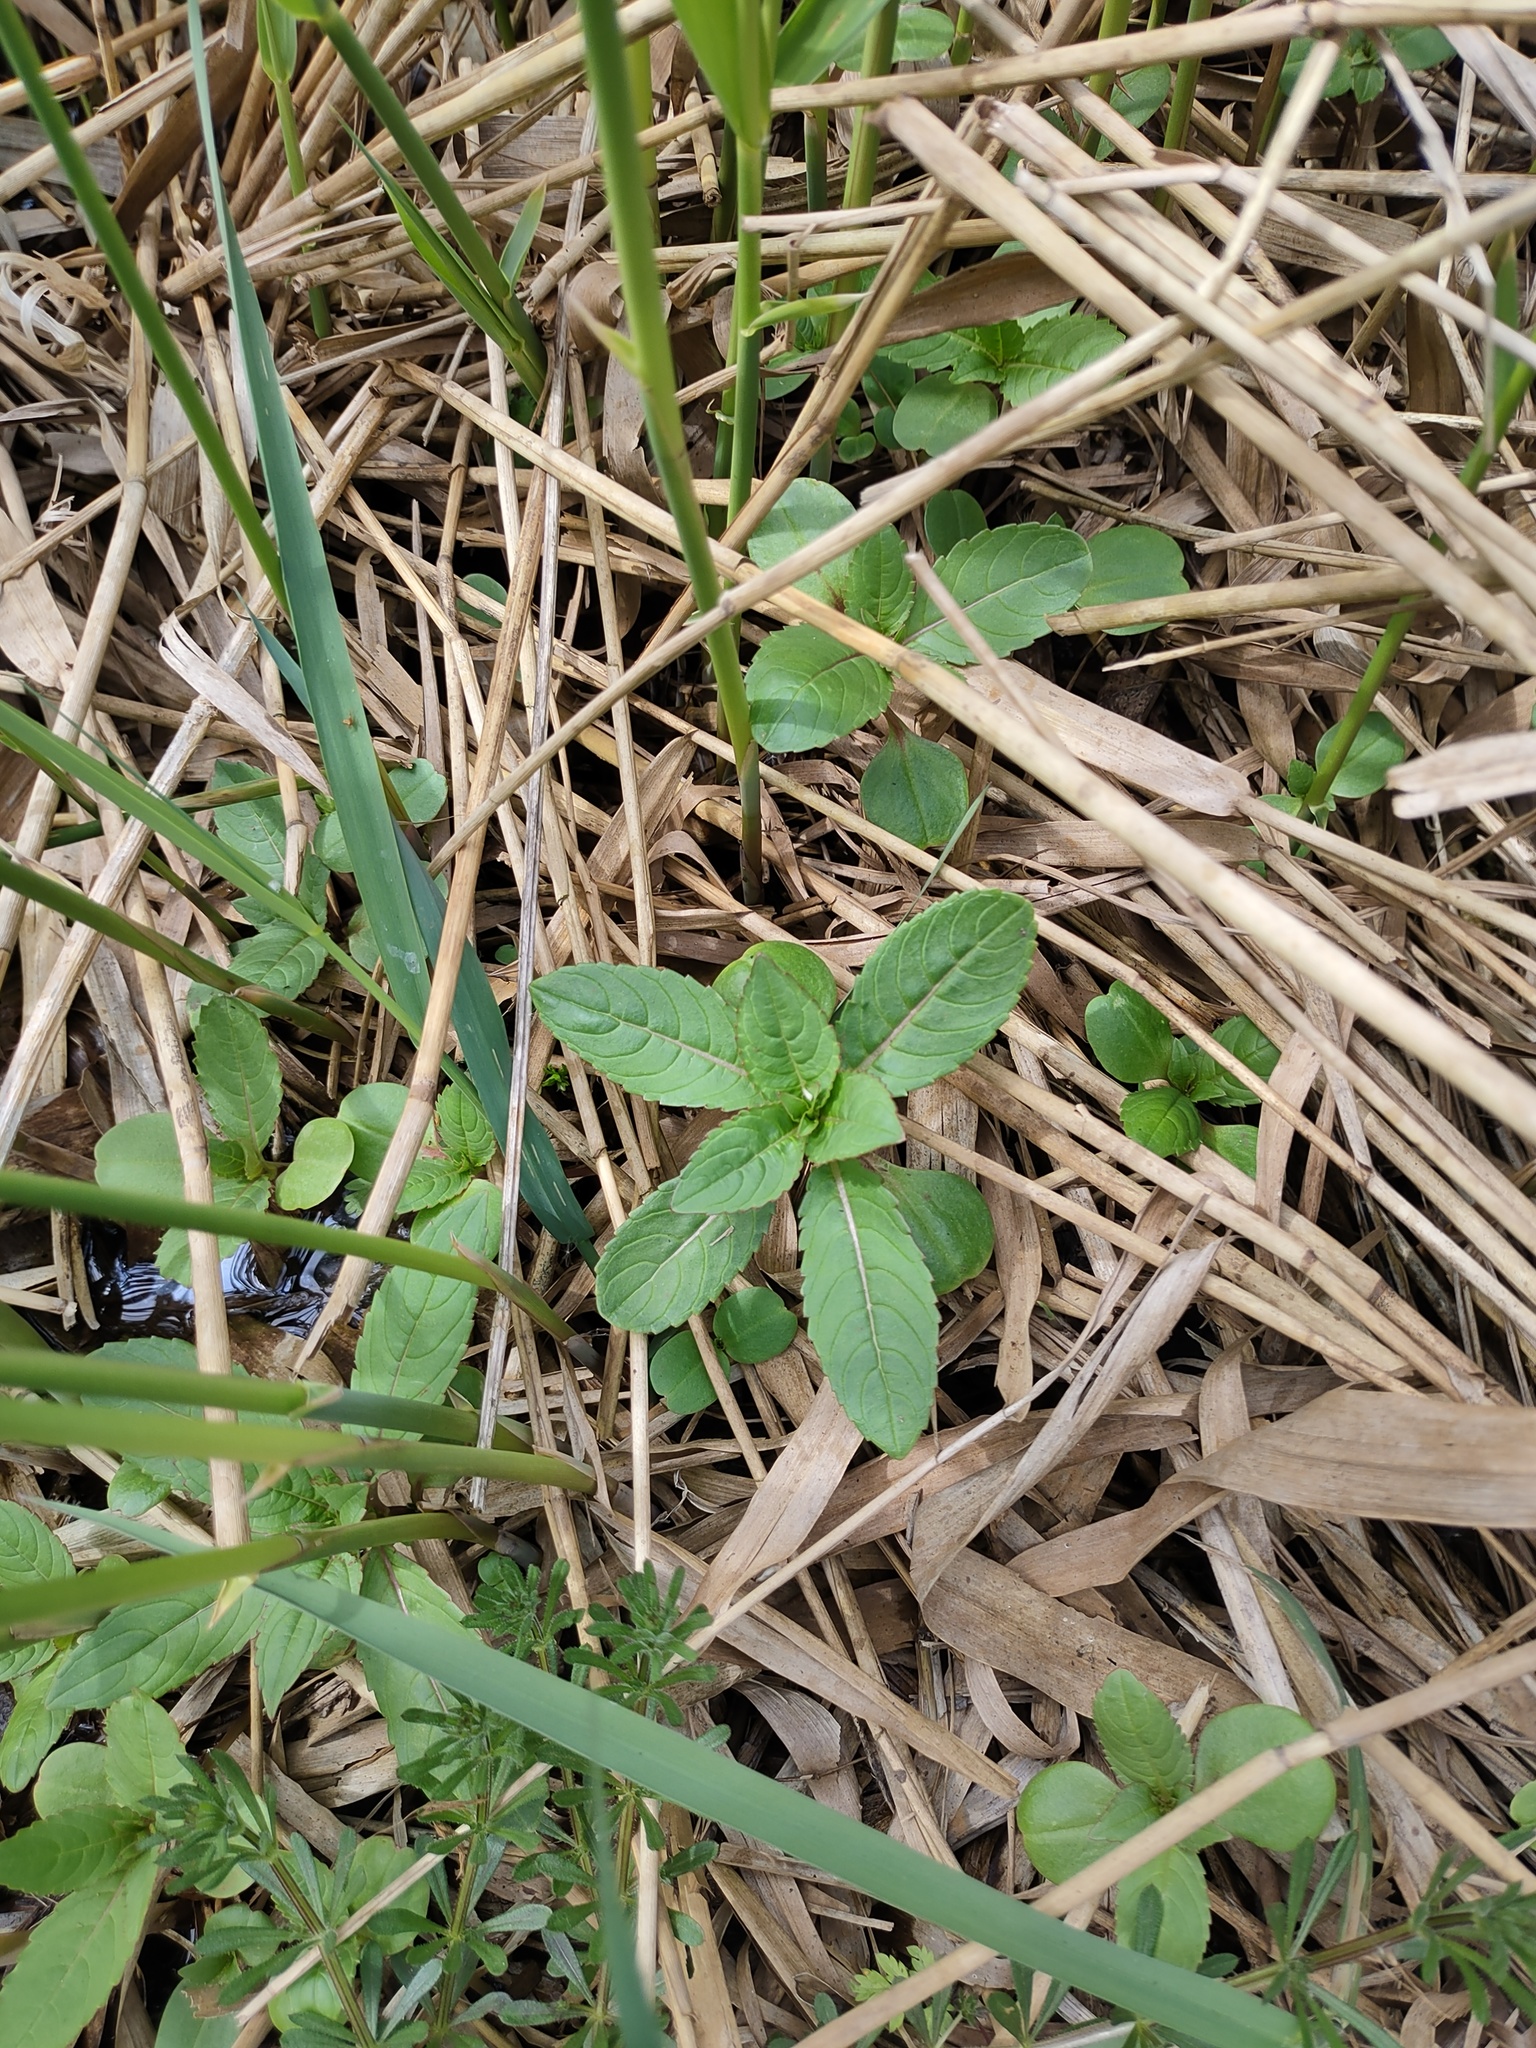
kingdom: Plantae
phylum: Tracheophyta
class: Magnoliopsida
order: Ericales
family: Balsaminaceae
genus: Impatiens
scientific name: Impatiens glandulifera
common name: Himalayan balsam
